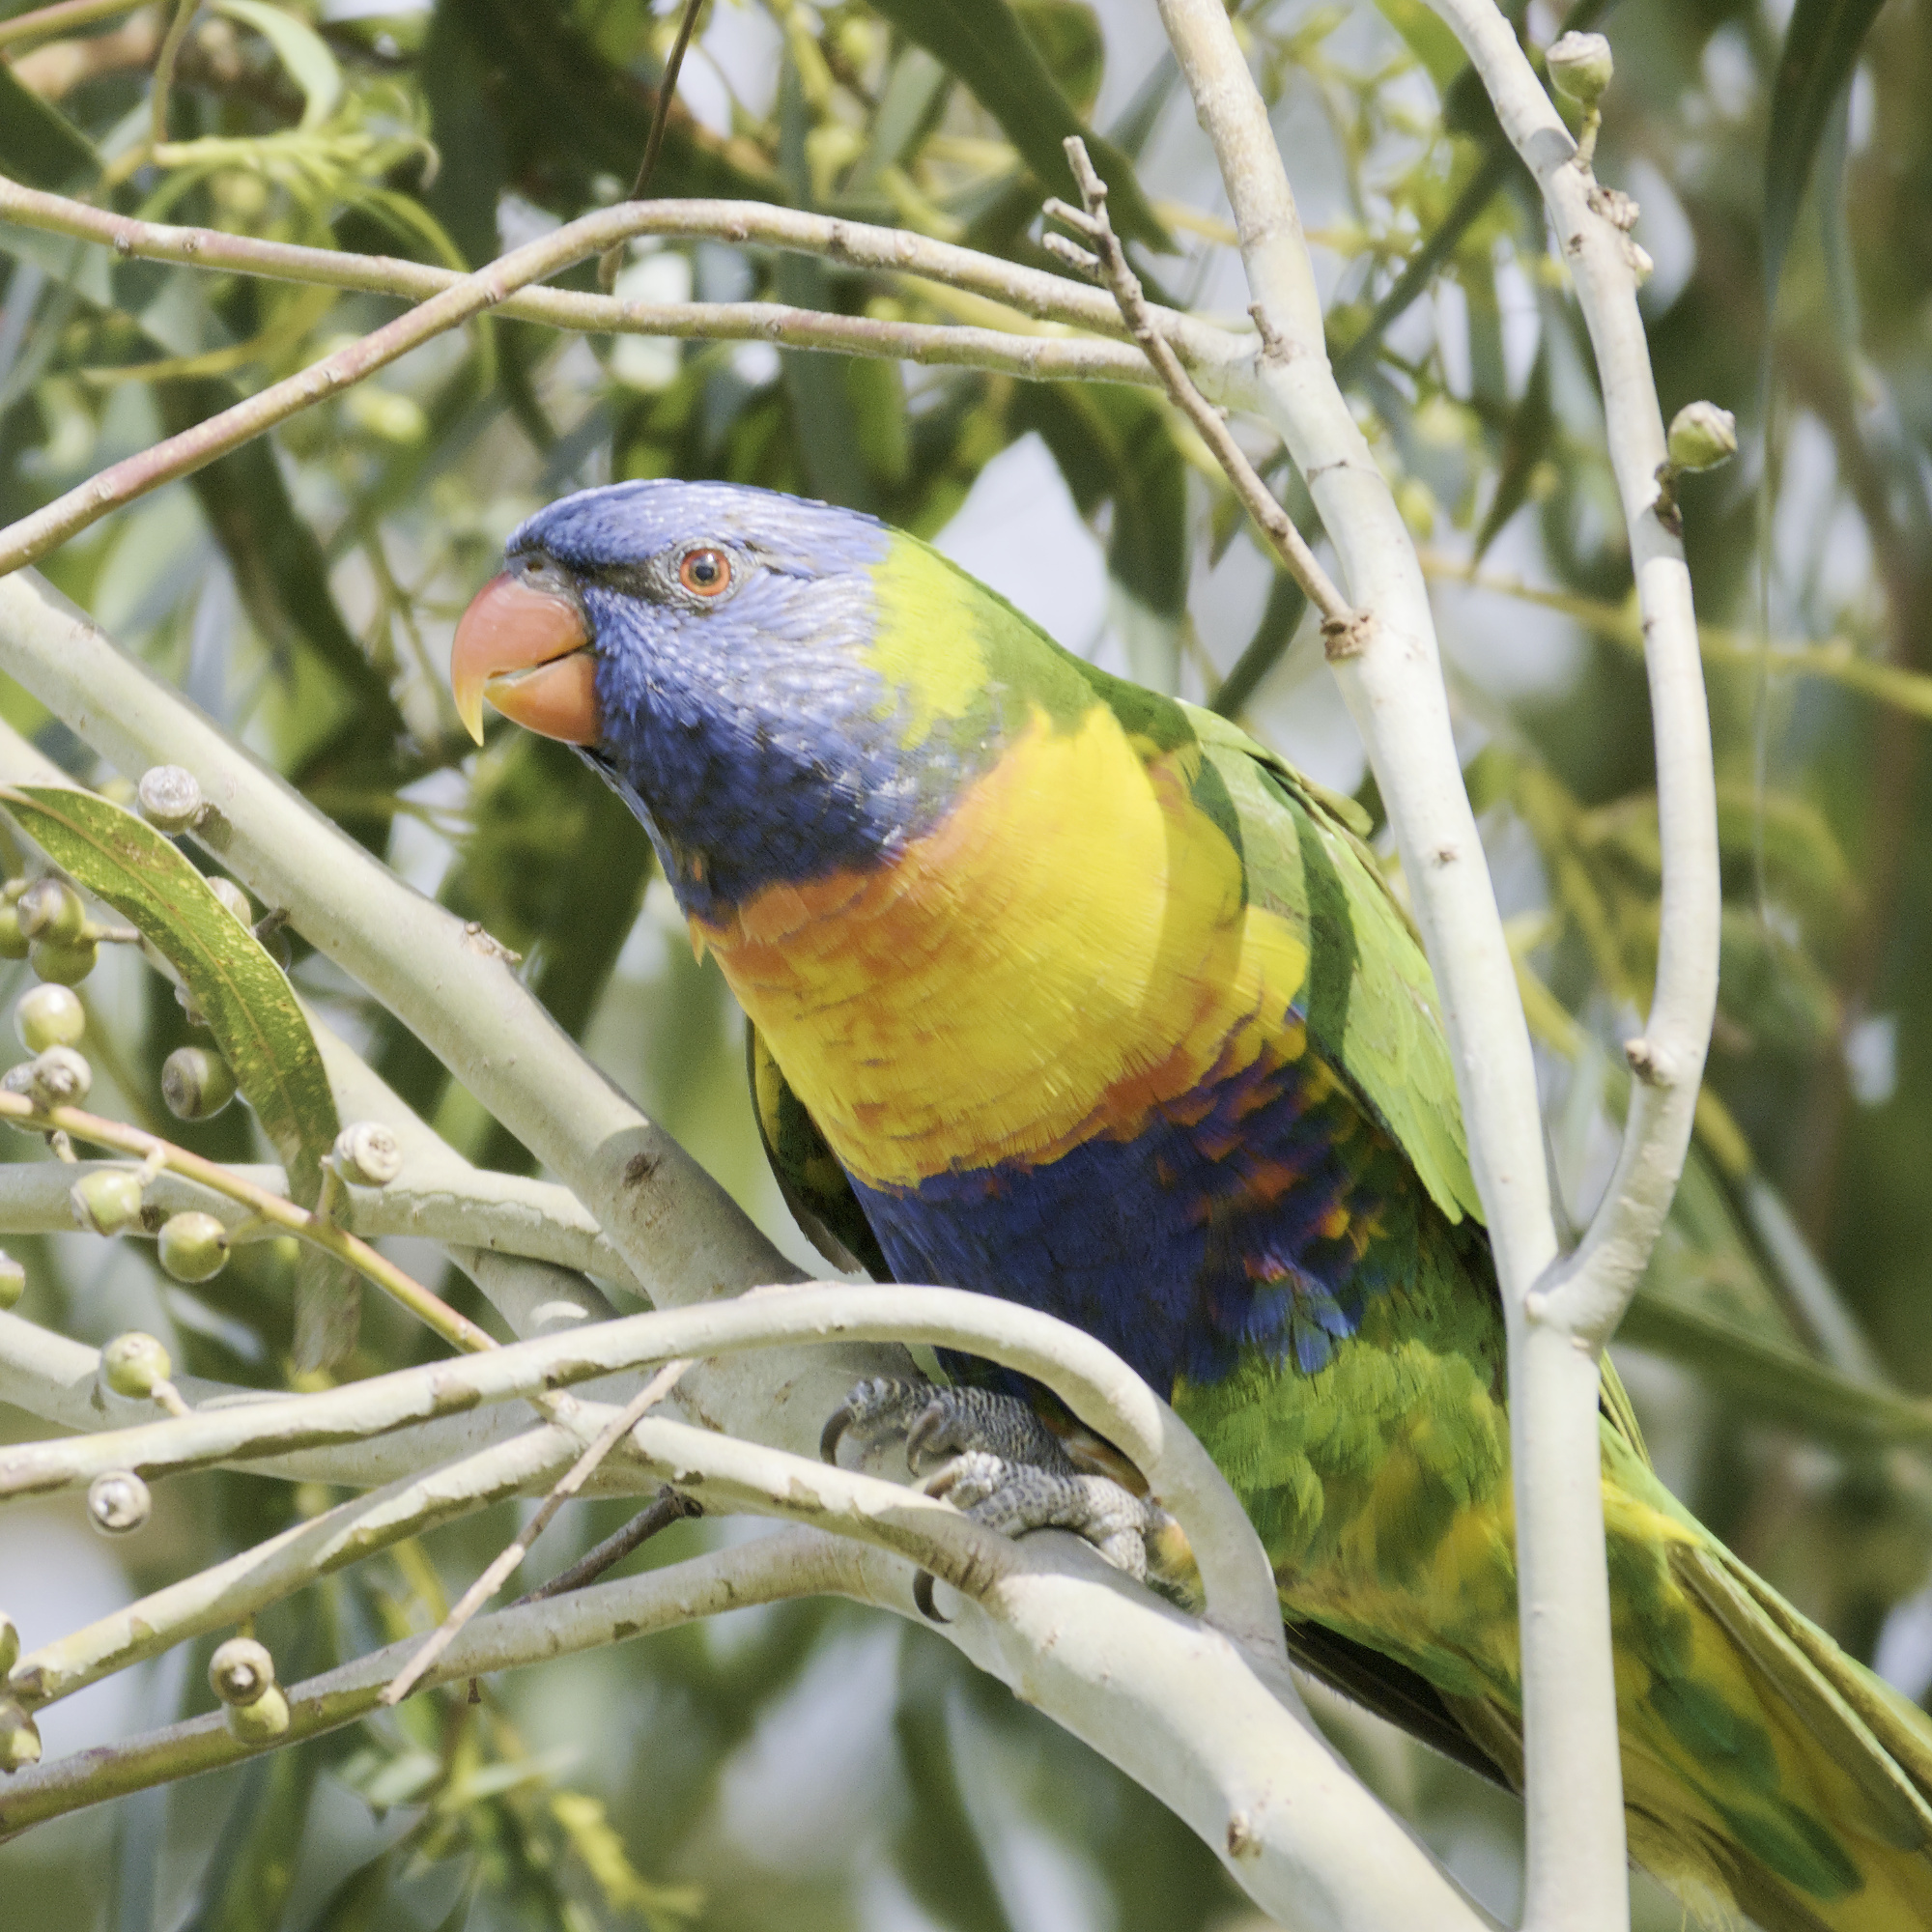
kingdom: Animalia
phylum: Chordata
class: Aves
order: Psittaciformes
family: Psittacidae
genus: Trichoglossus
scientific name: Trichoglossus haematodus
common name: Coconut lorikeet
